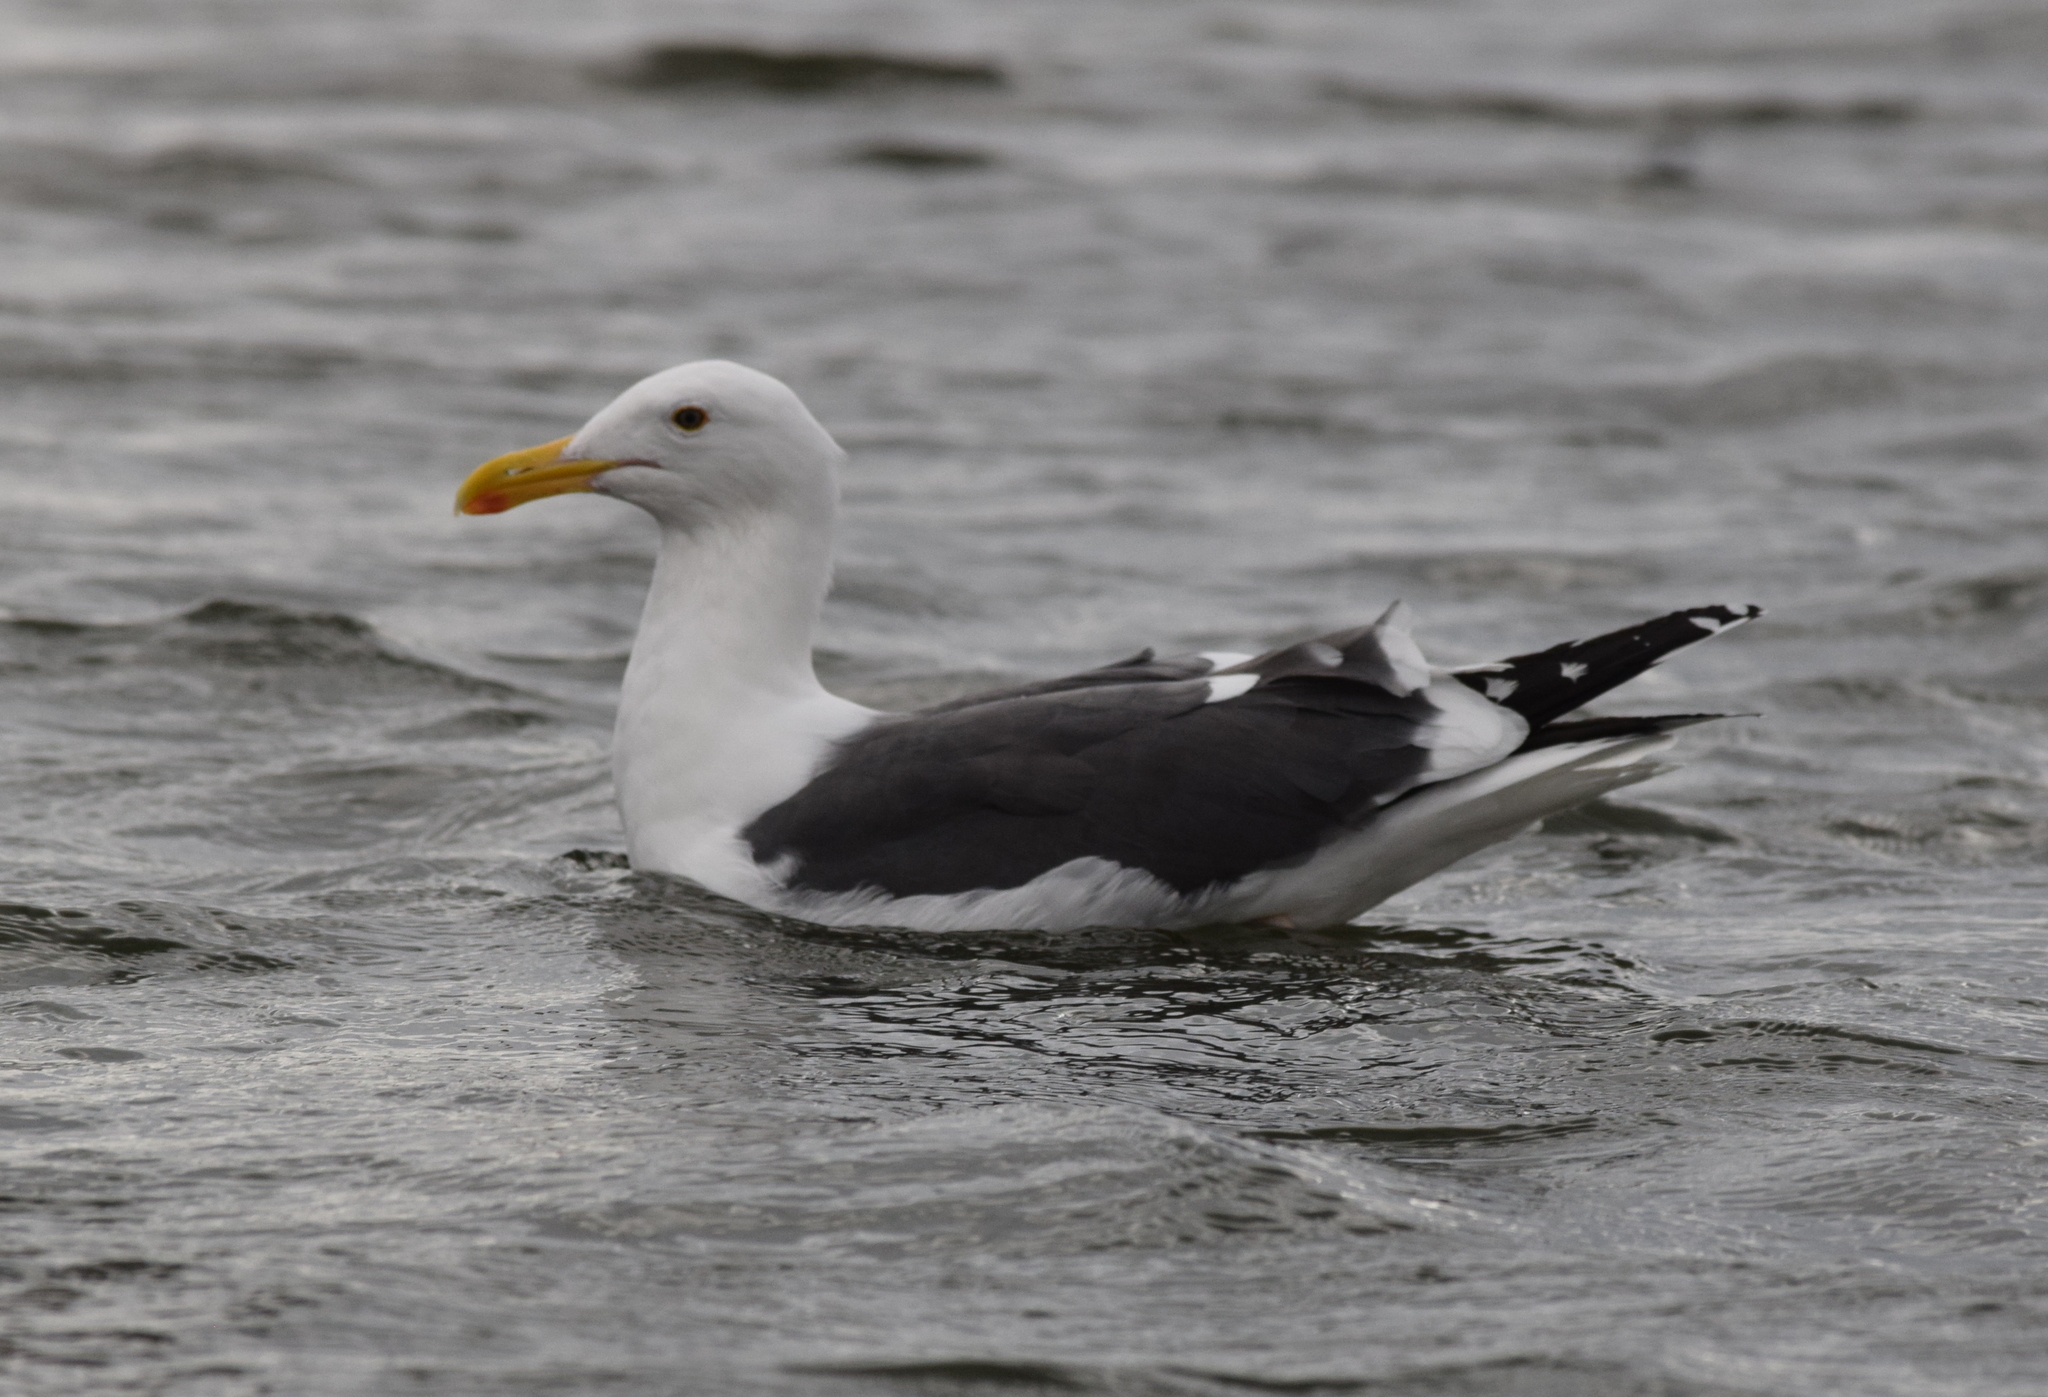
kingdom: Animalia
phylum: Chordata
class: Aves
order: Charadriiformes
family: Laridae
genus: Larus
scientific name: Larus occidentalis
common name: Western gull
